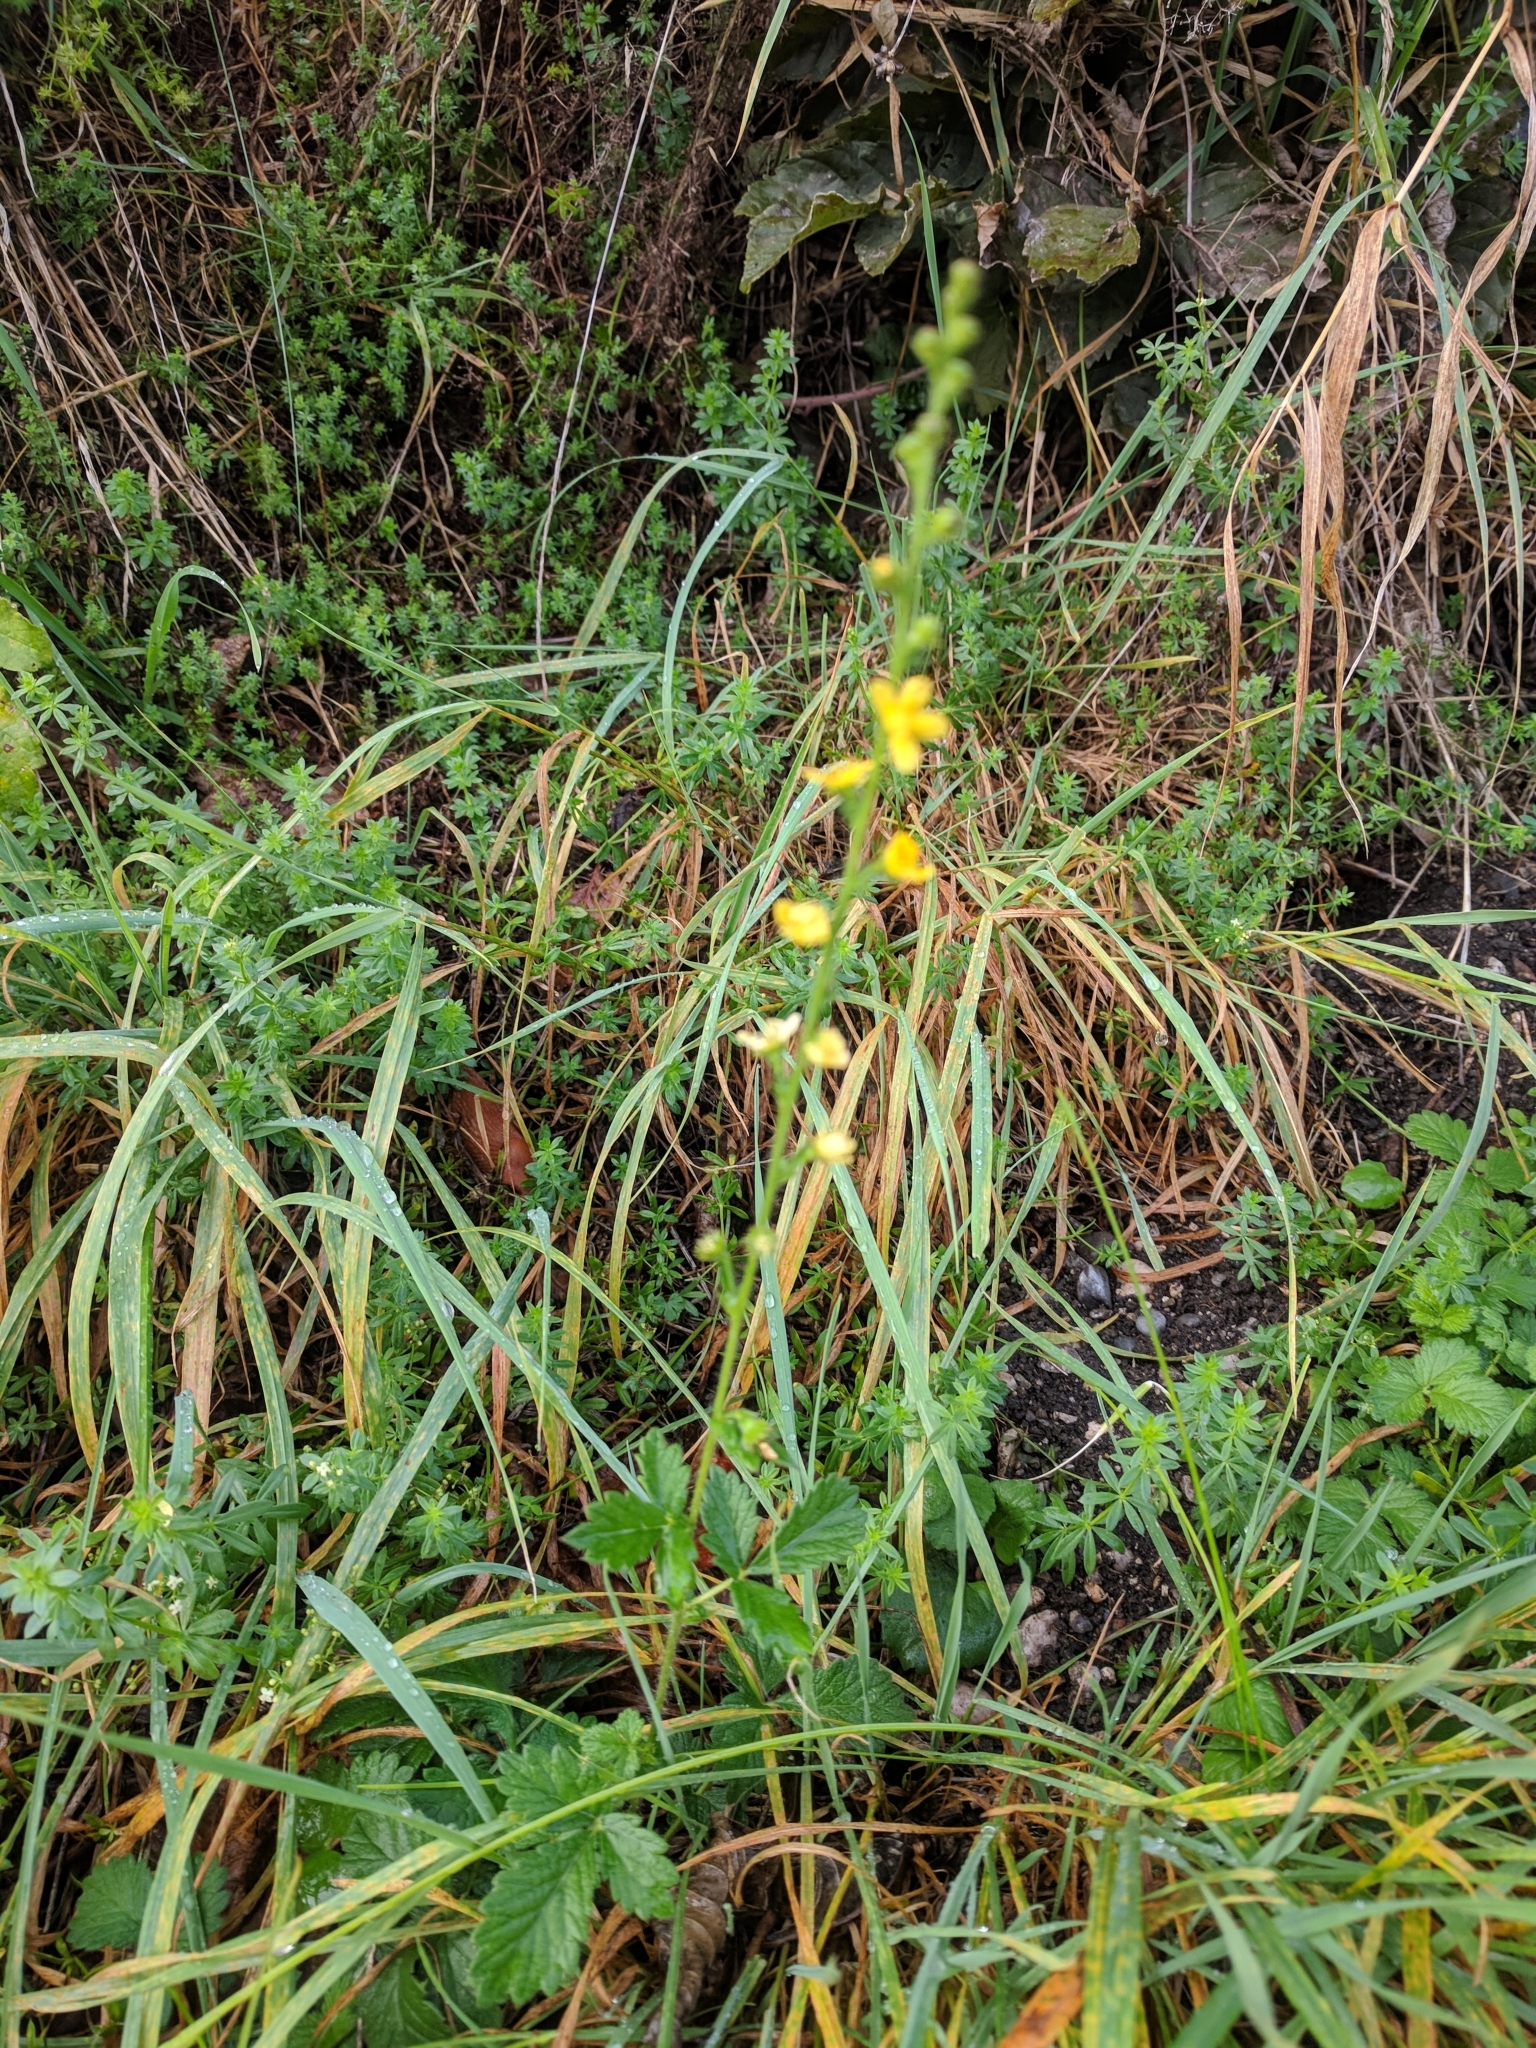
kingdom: Plantae
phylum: Tracheophyta
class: Magnoliopsida
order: Rosales
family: Rosaceae
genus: Agrimonia
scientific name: Agrimonia eupatoria
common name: Agrimony
